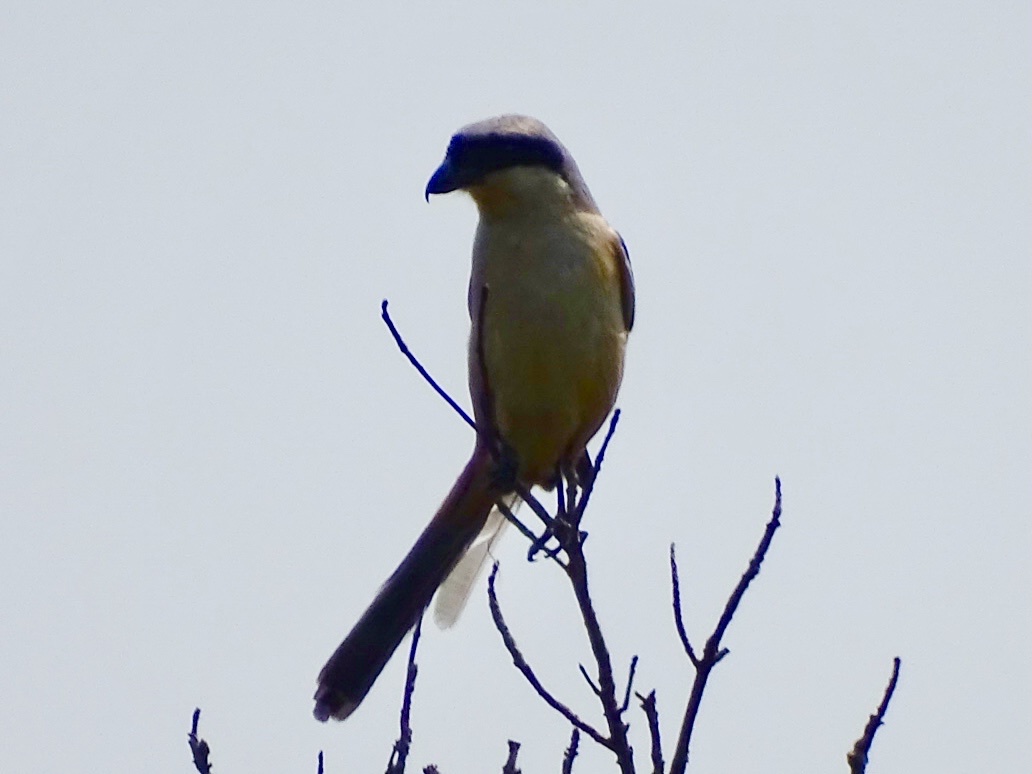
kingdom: Animalia
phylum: Chordata
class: Aves
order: Passeriformes
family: Laniidae
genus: Lanius
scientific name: Lanius schach
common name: Long-tailed shrike
